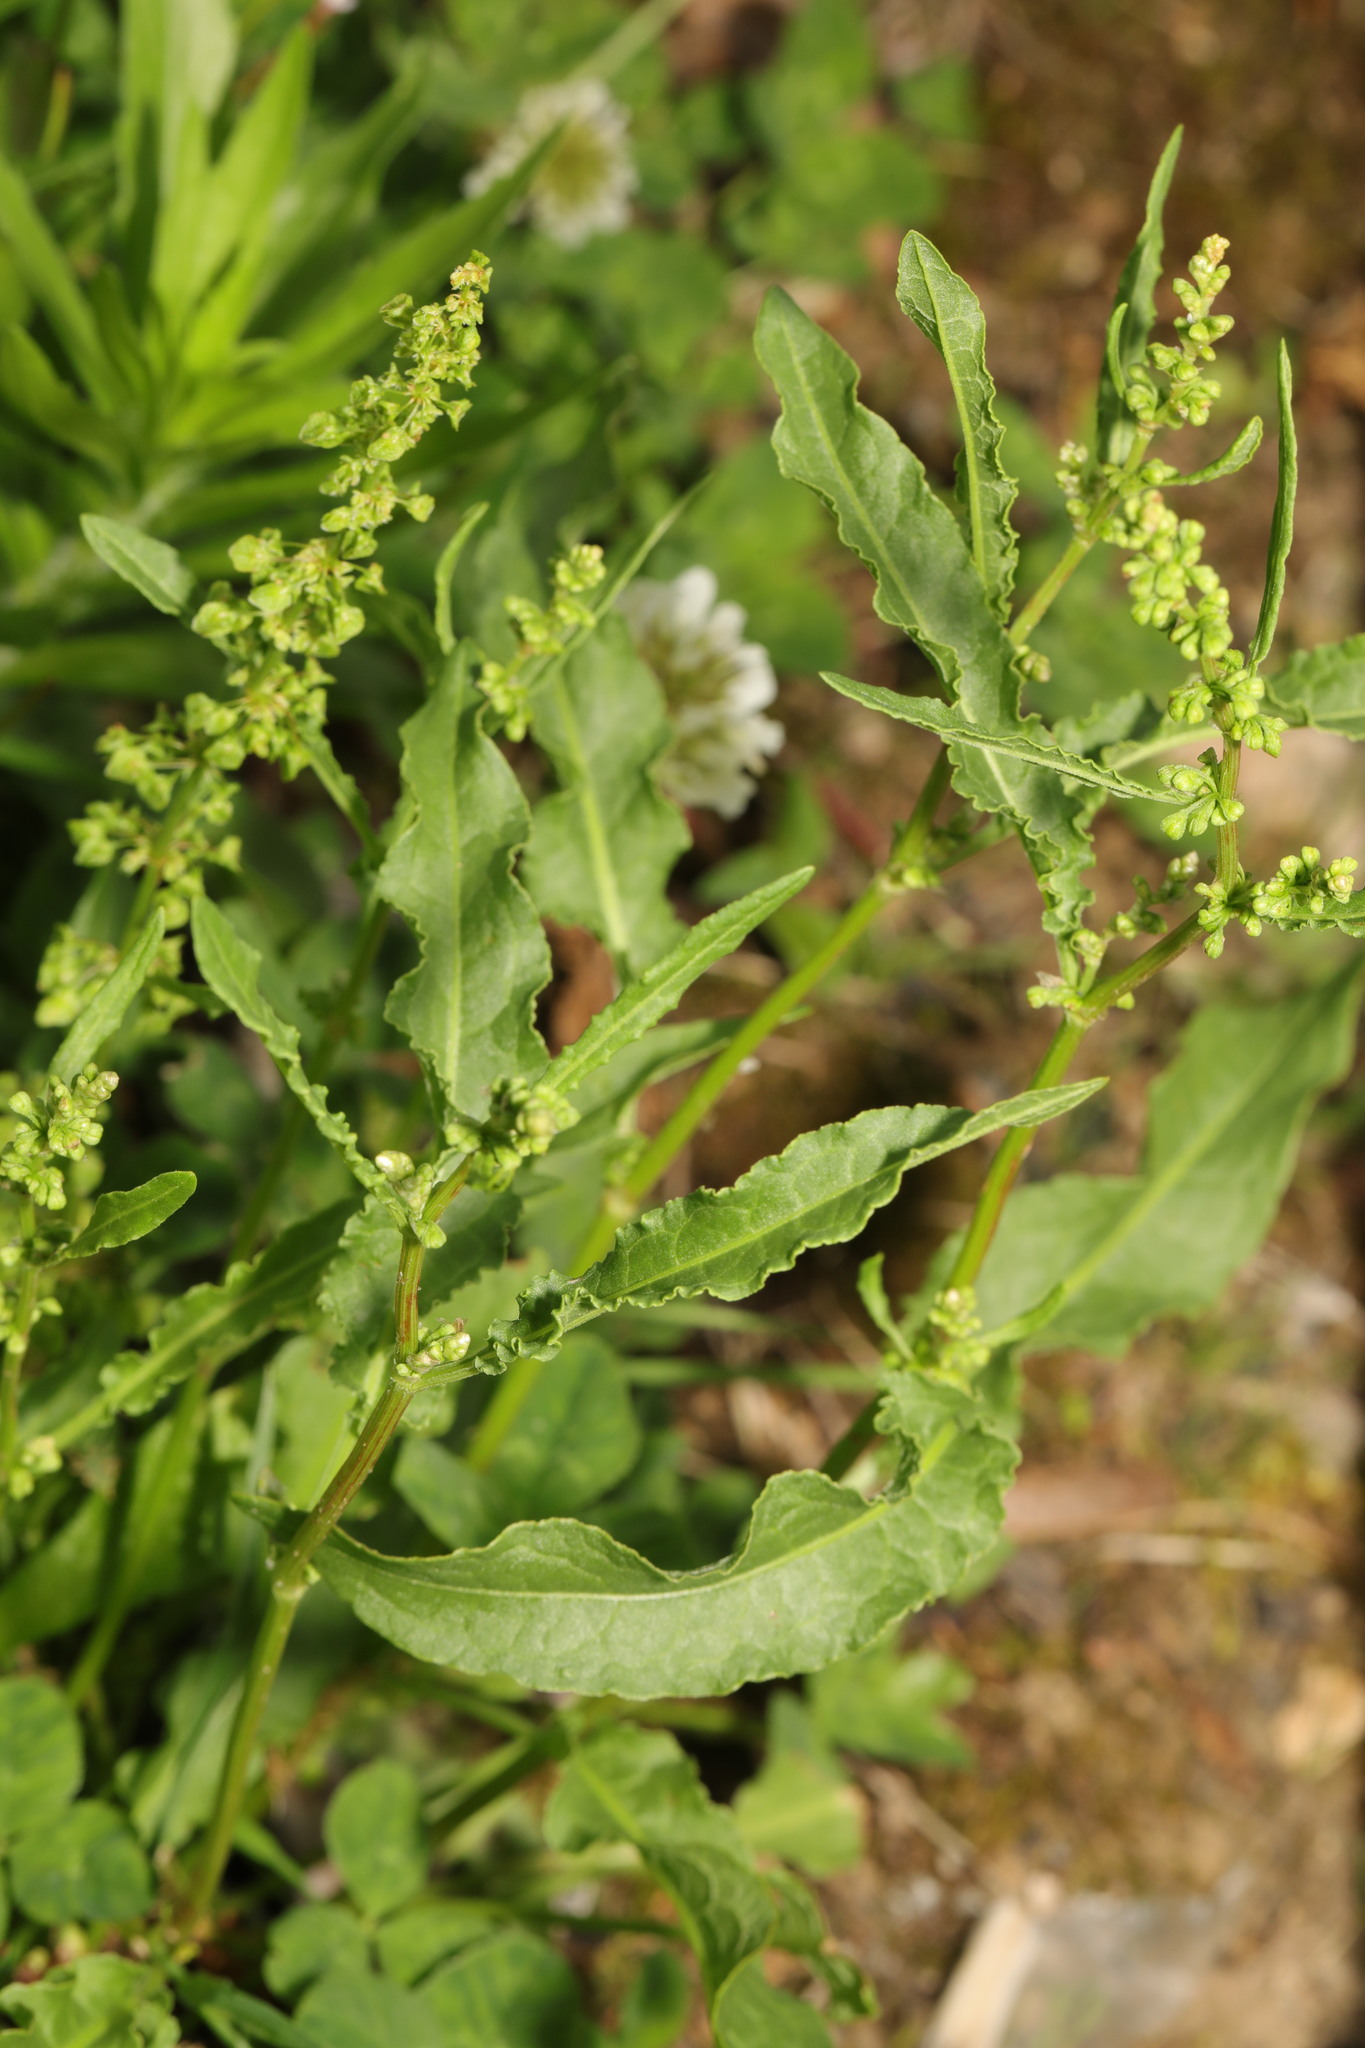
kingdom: Plantae
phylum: Tracheophyta
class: Magnoliopsida
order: Caryophyllales
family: Polygonaceae
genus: Rumex
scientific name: Rumex crispus
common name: Curled dock
